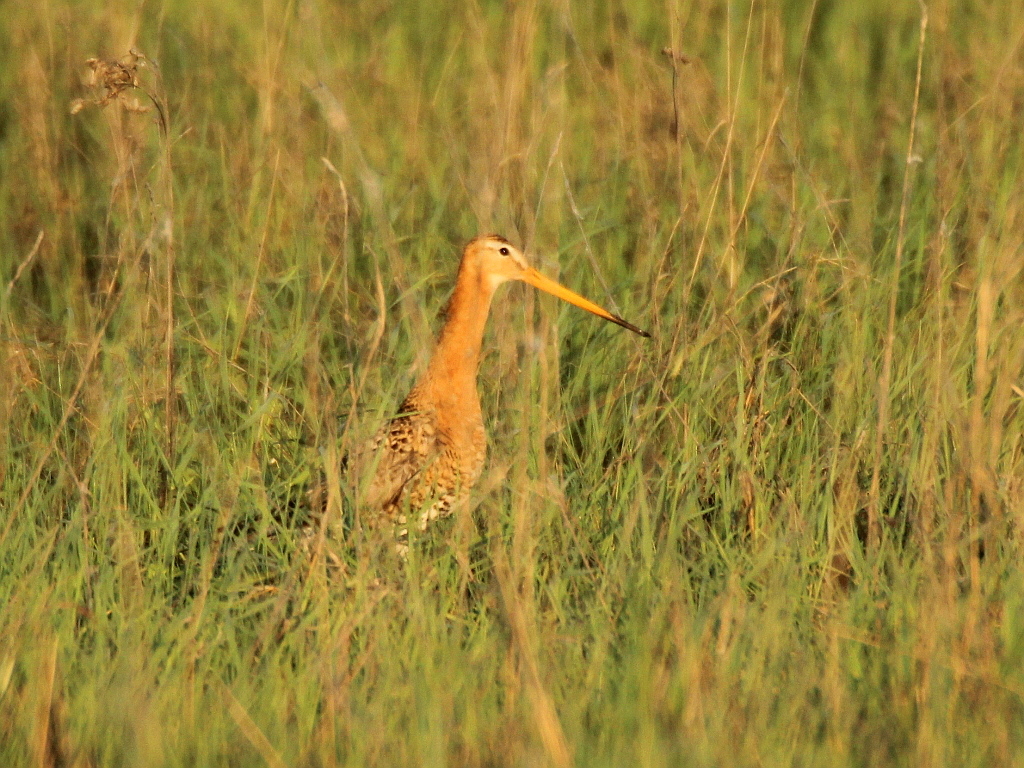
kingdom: Animalia
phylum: Chordata
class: Aves
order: Charadriiformes
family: Scolopacidae
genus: Limosa
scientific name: Limosa limosa
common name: Black-tailed godwit
